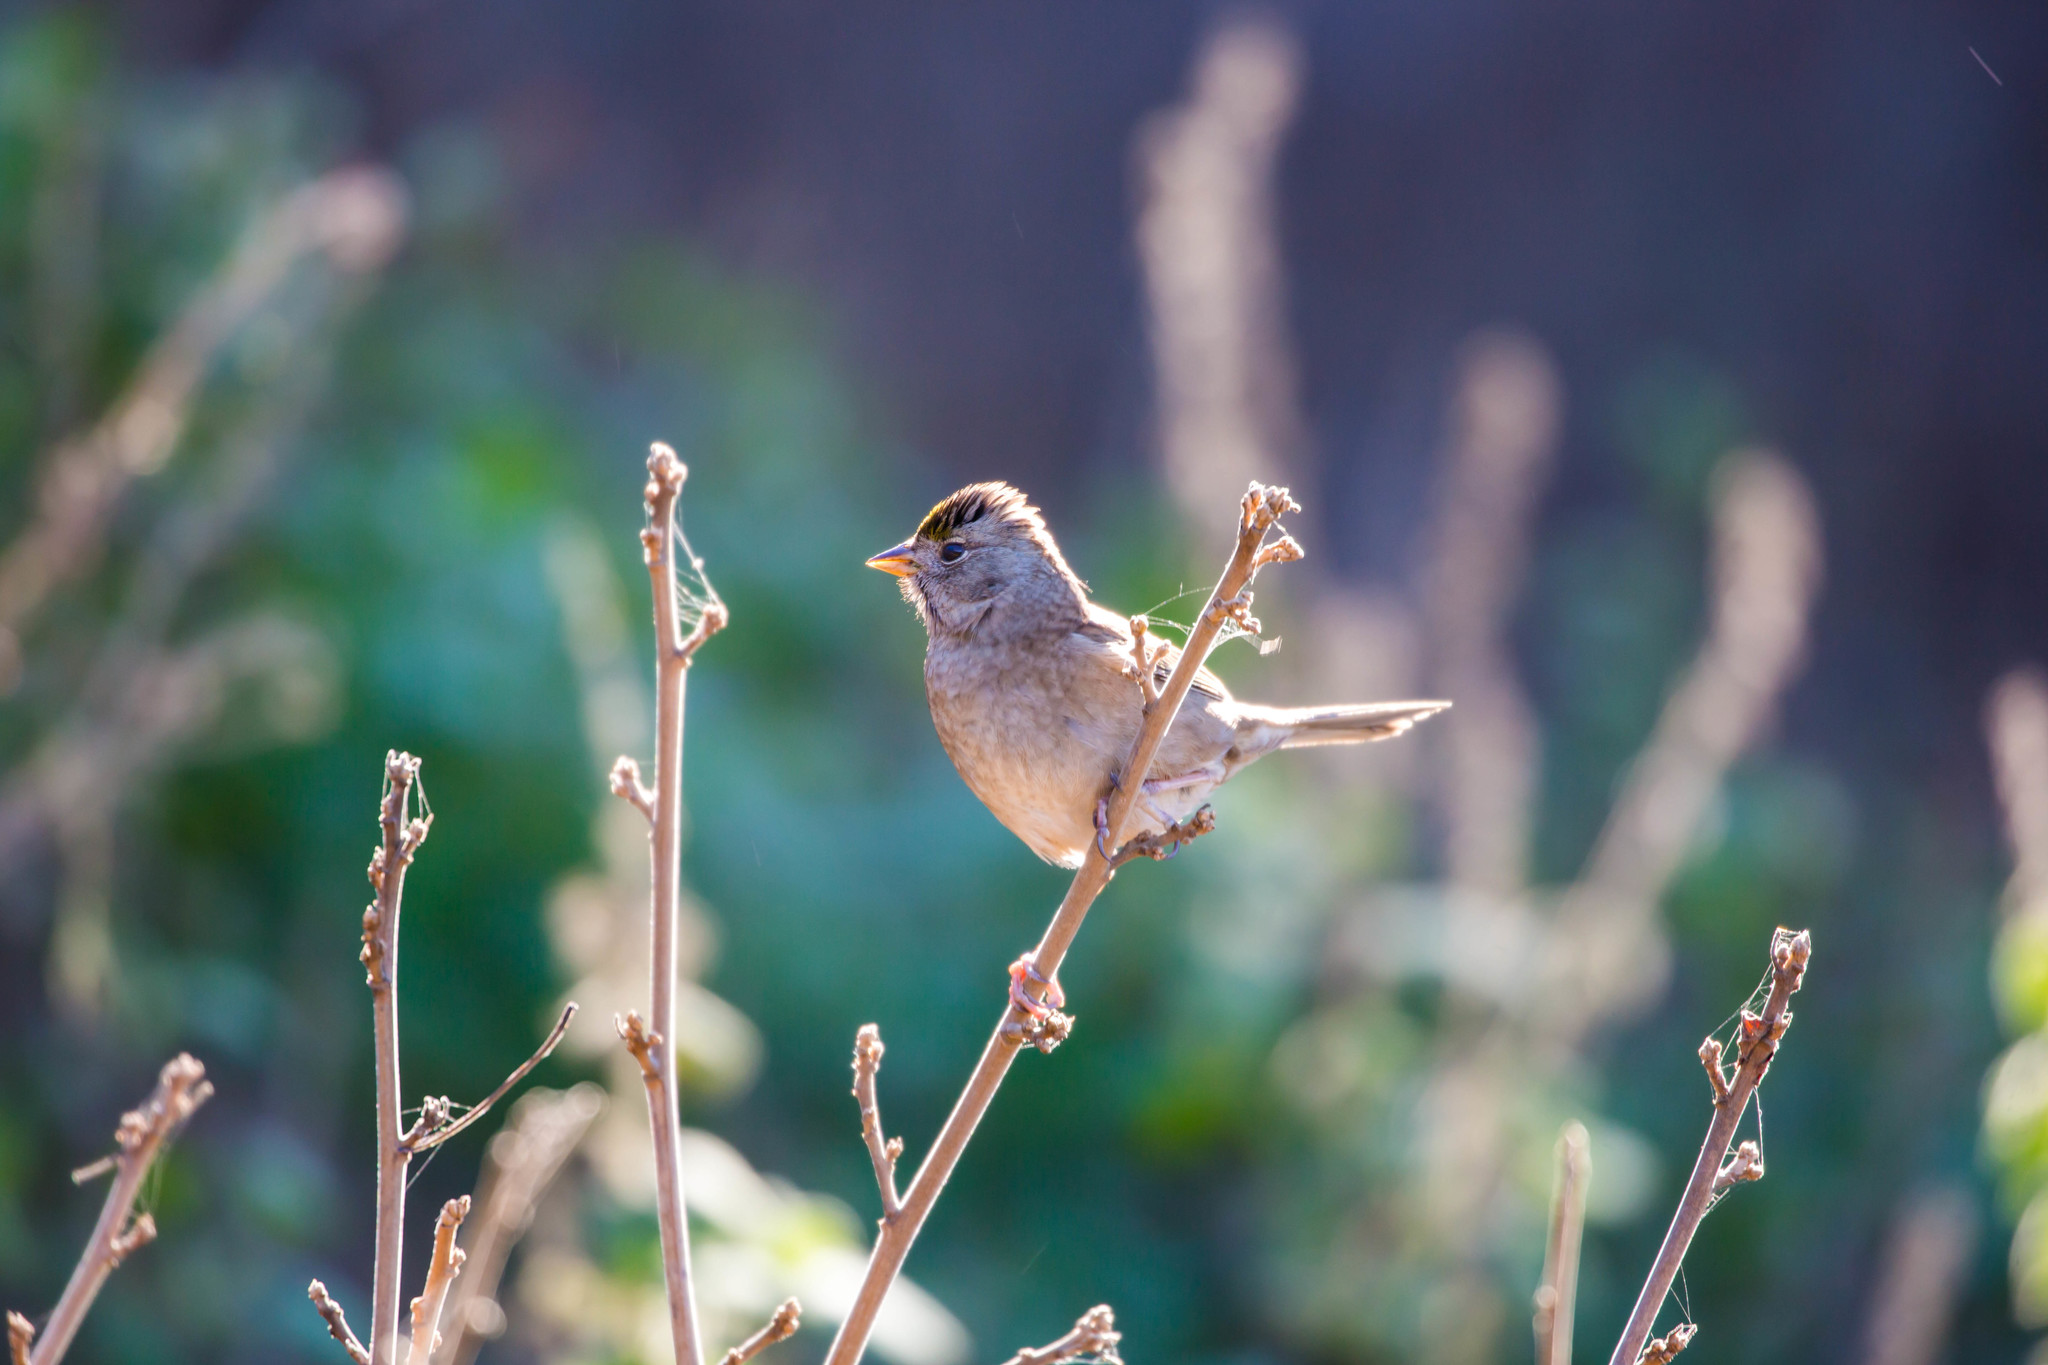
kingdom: Animalia
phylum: Chordata
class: Aves
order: Passeriformes
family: Passerellidae
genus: Zonotrichia
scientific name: Zonotrichia atricapilla
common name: Golden-crowned sparrow
